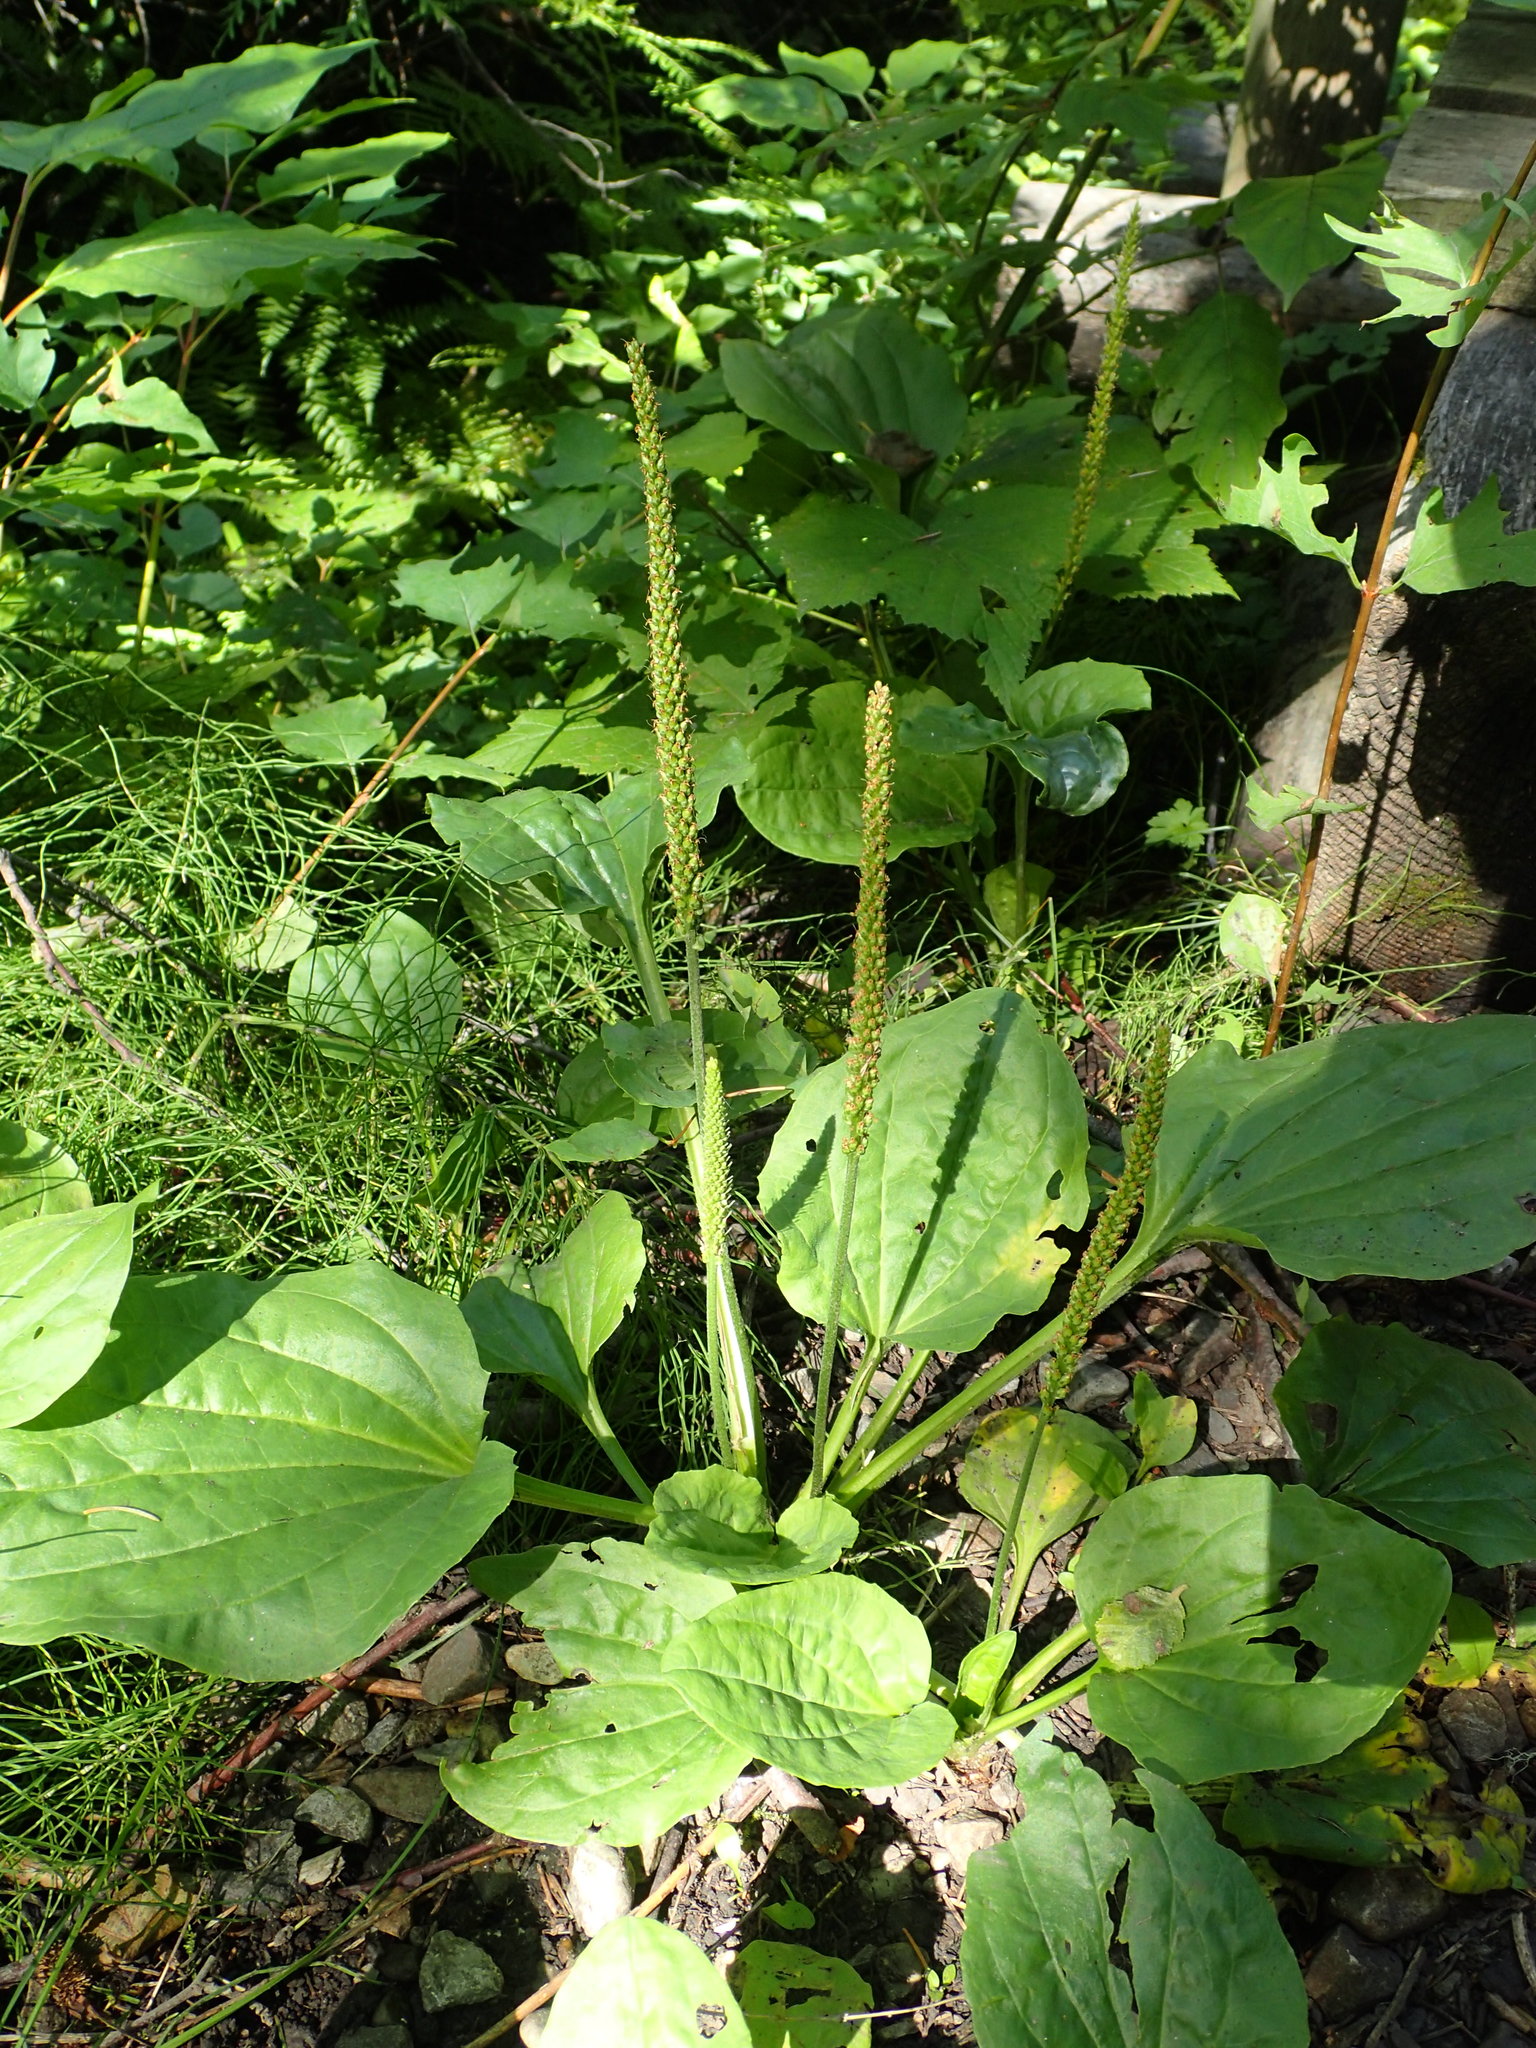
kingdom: Plantae
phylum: Tracheophyta
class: Magnoliopsida
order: Lamiales
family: Plantaginaceae
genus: Plantago
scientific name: Plantago major
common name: Common plantain
